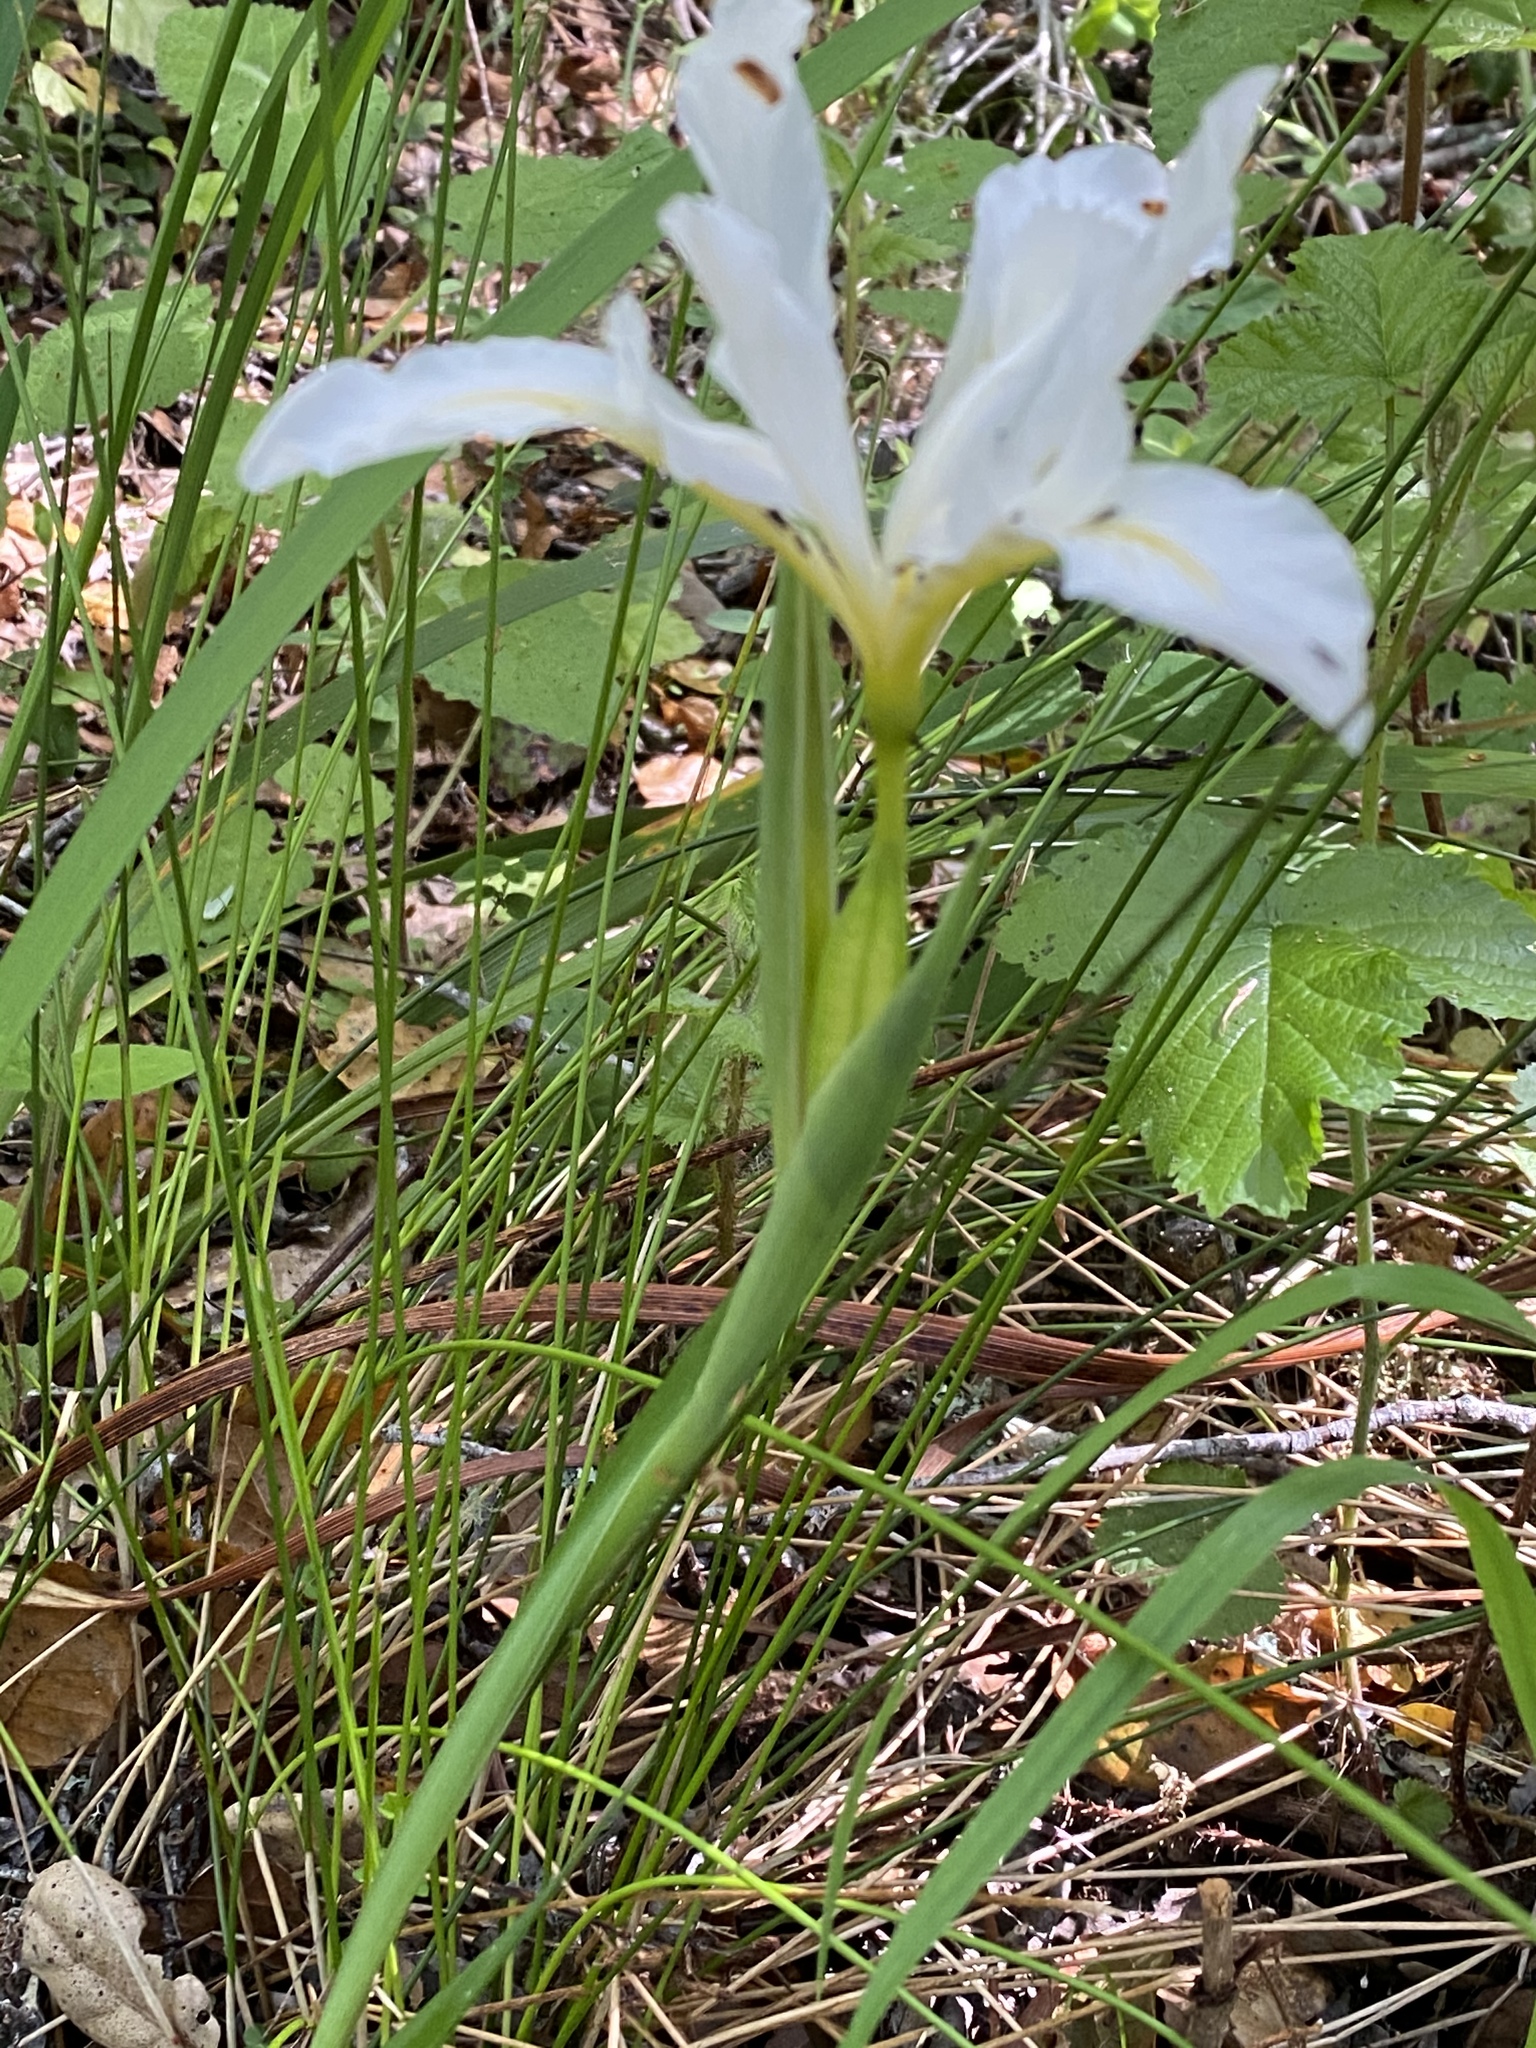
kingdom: Plantae
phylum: Tracheophyta
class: Liliopsida
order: Asparagales
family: Iridaceae
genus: Iris
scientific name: Iris douglasiana
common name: Marin iris
